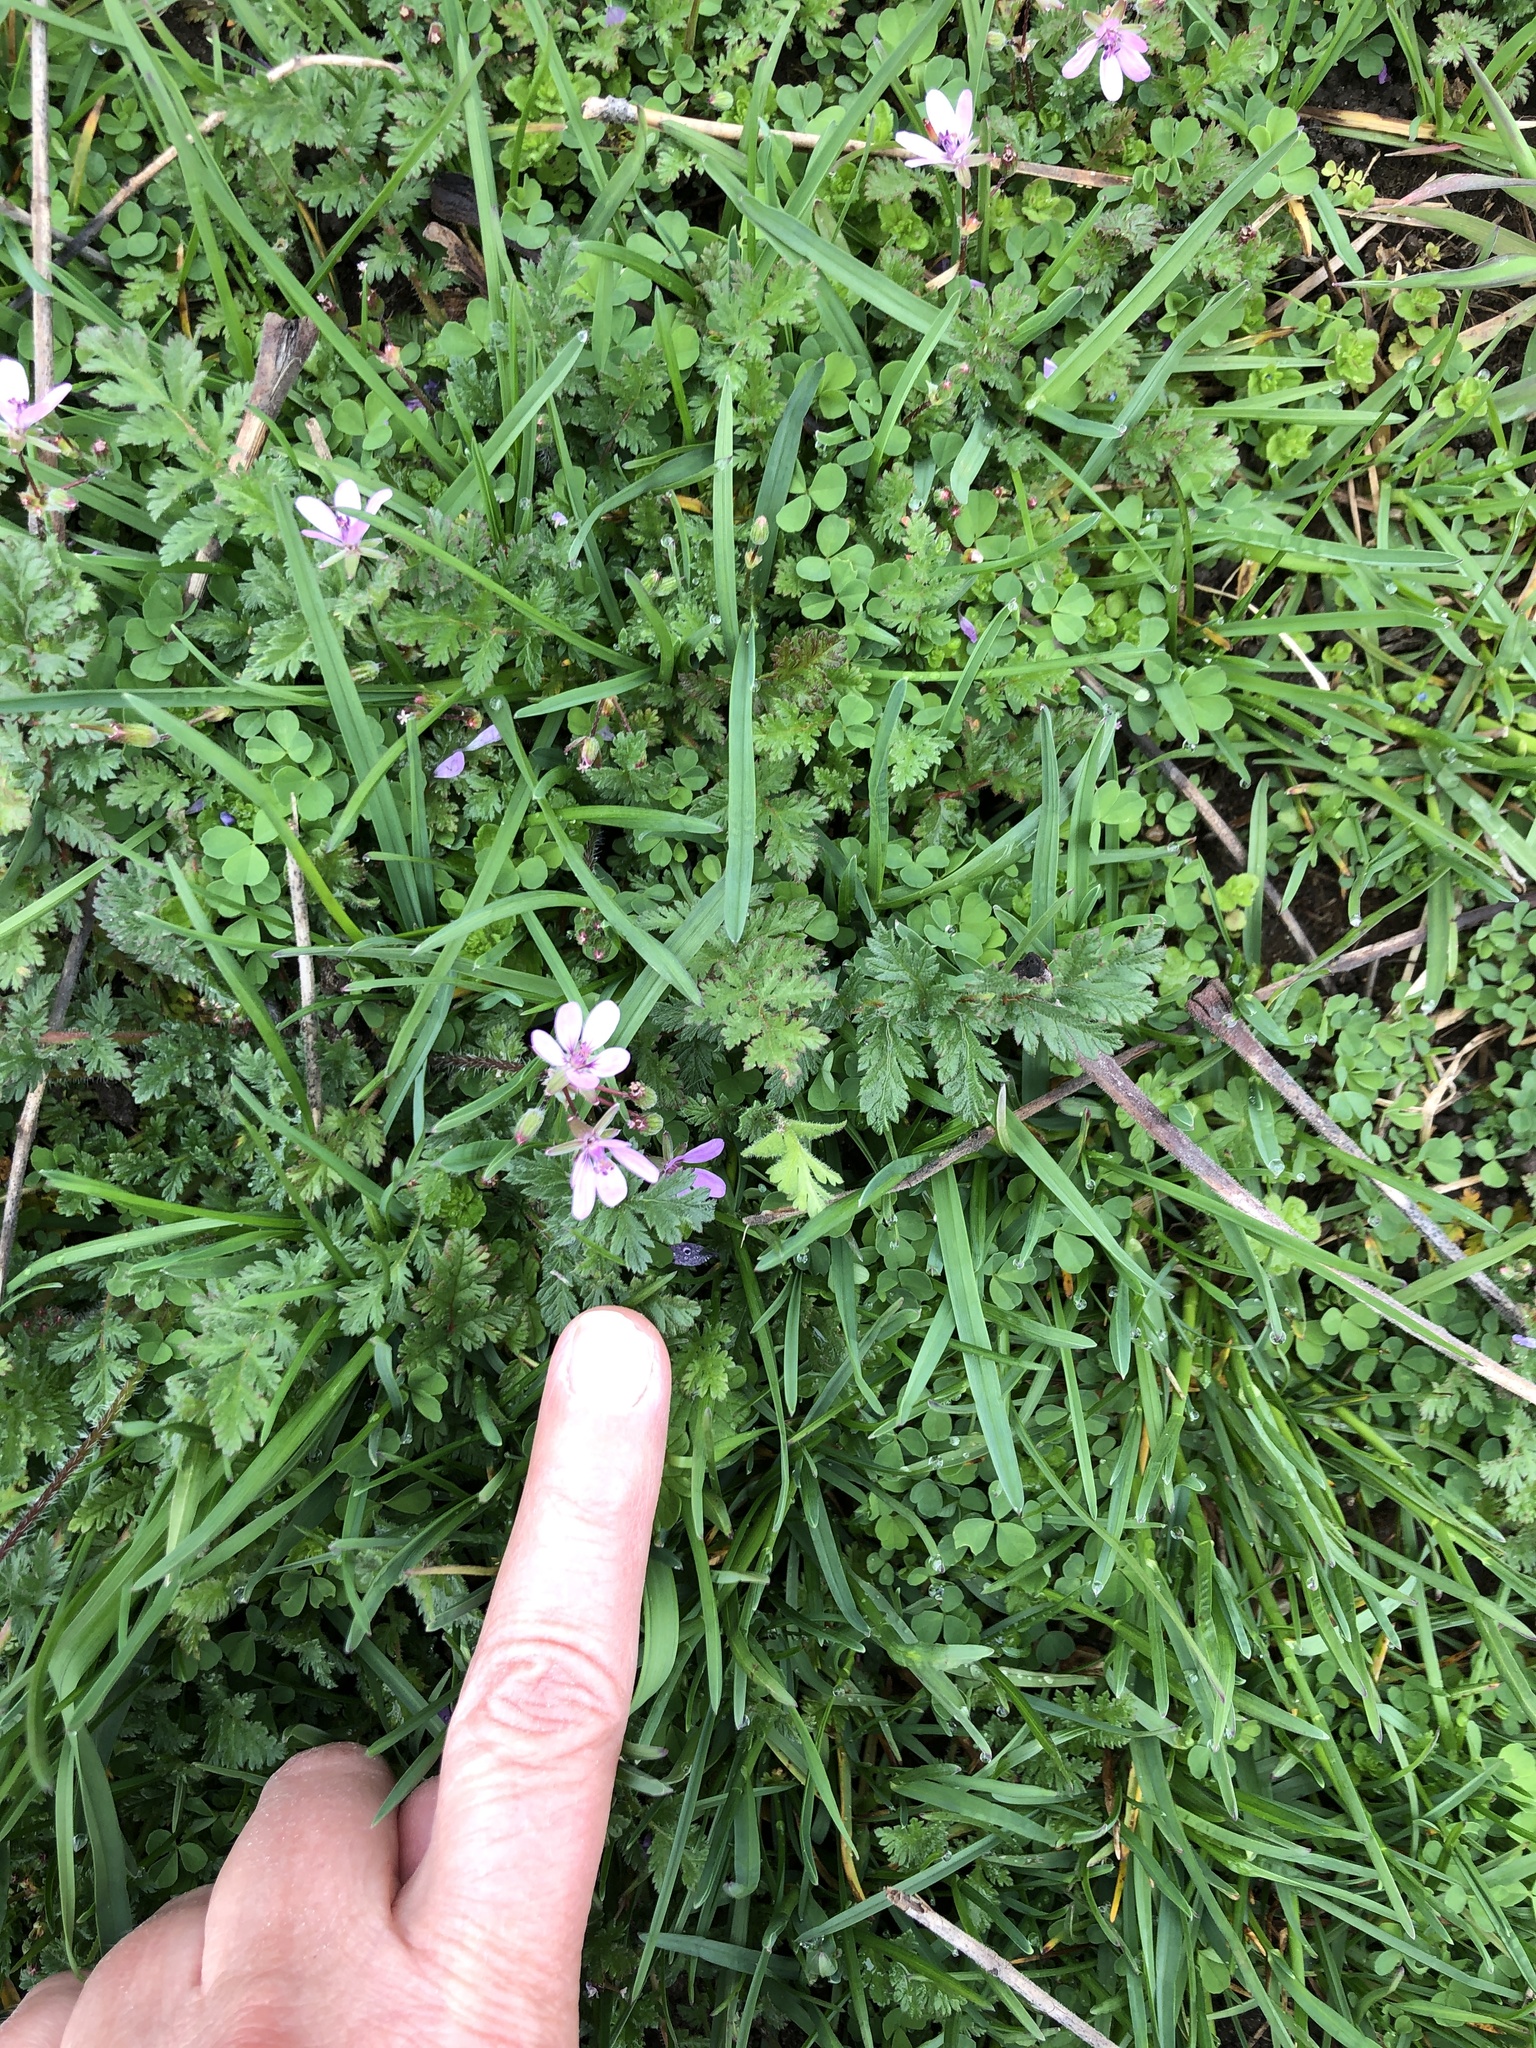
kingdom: Plantae
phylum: Tracheophyta
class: Magnoliopsida
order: Geraniales
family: Geraniaceae
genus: Erodium
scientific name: Erodium cicutarium
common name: Common stork's-bill
